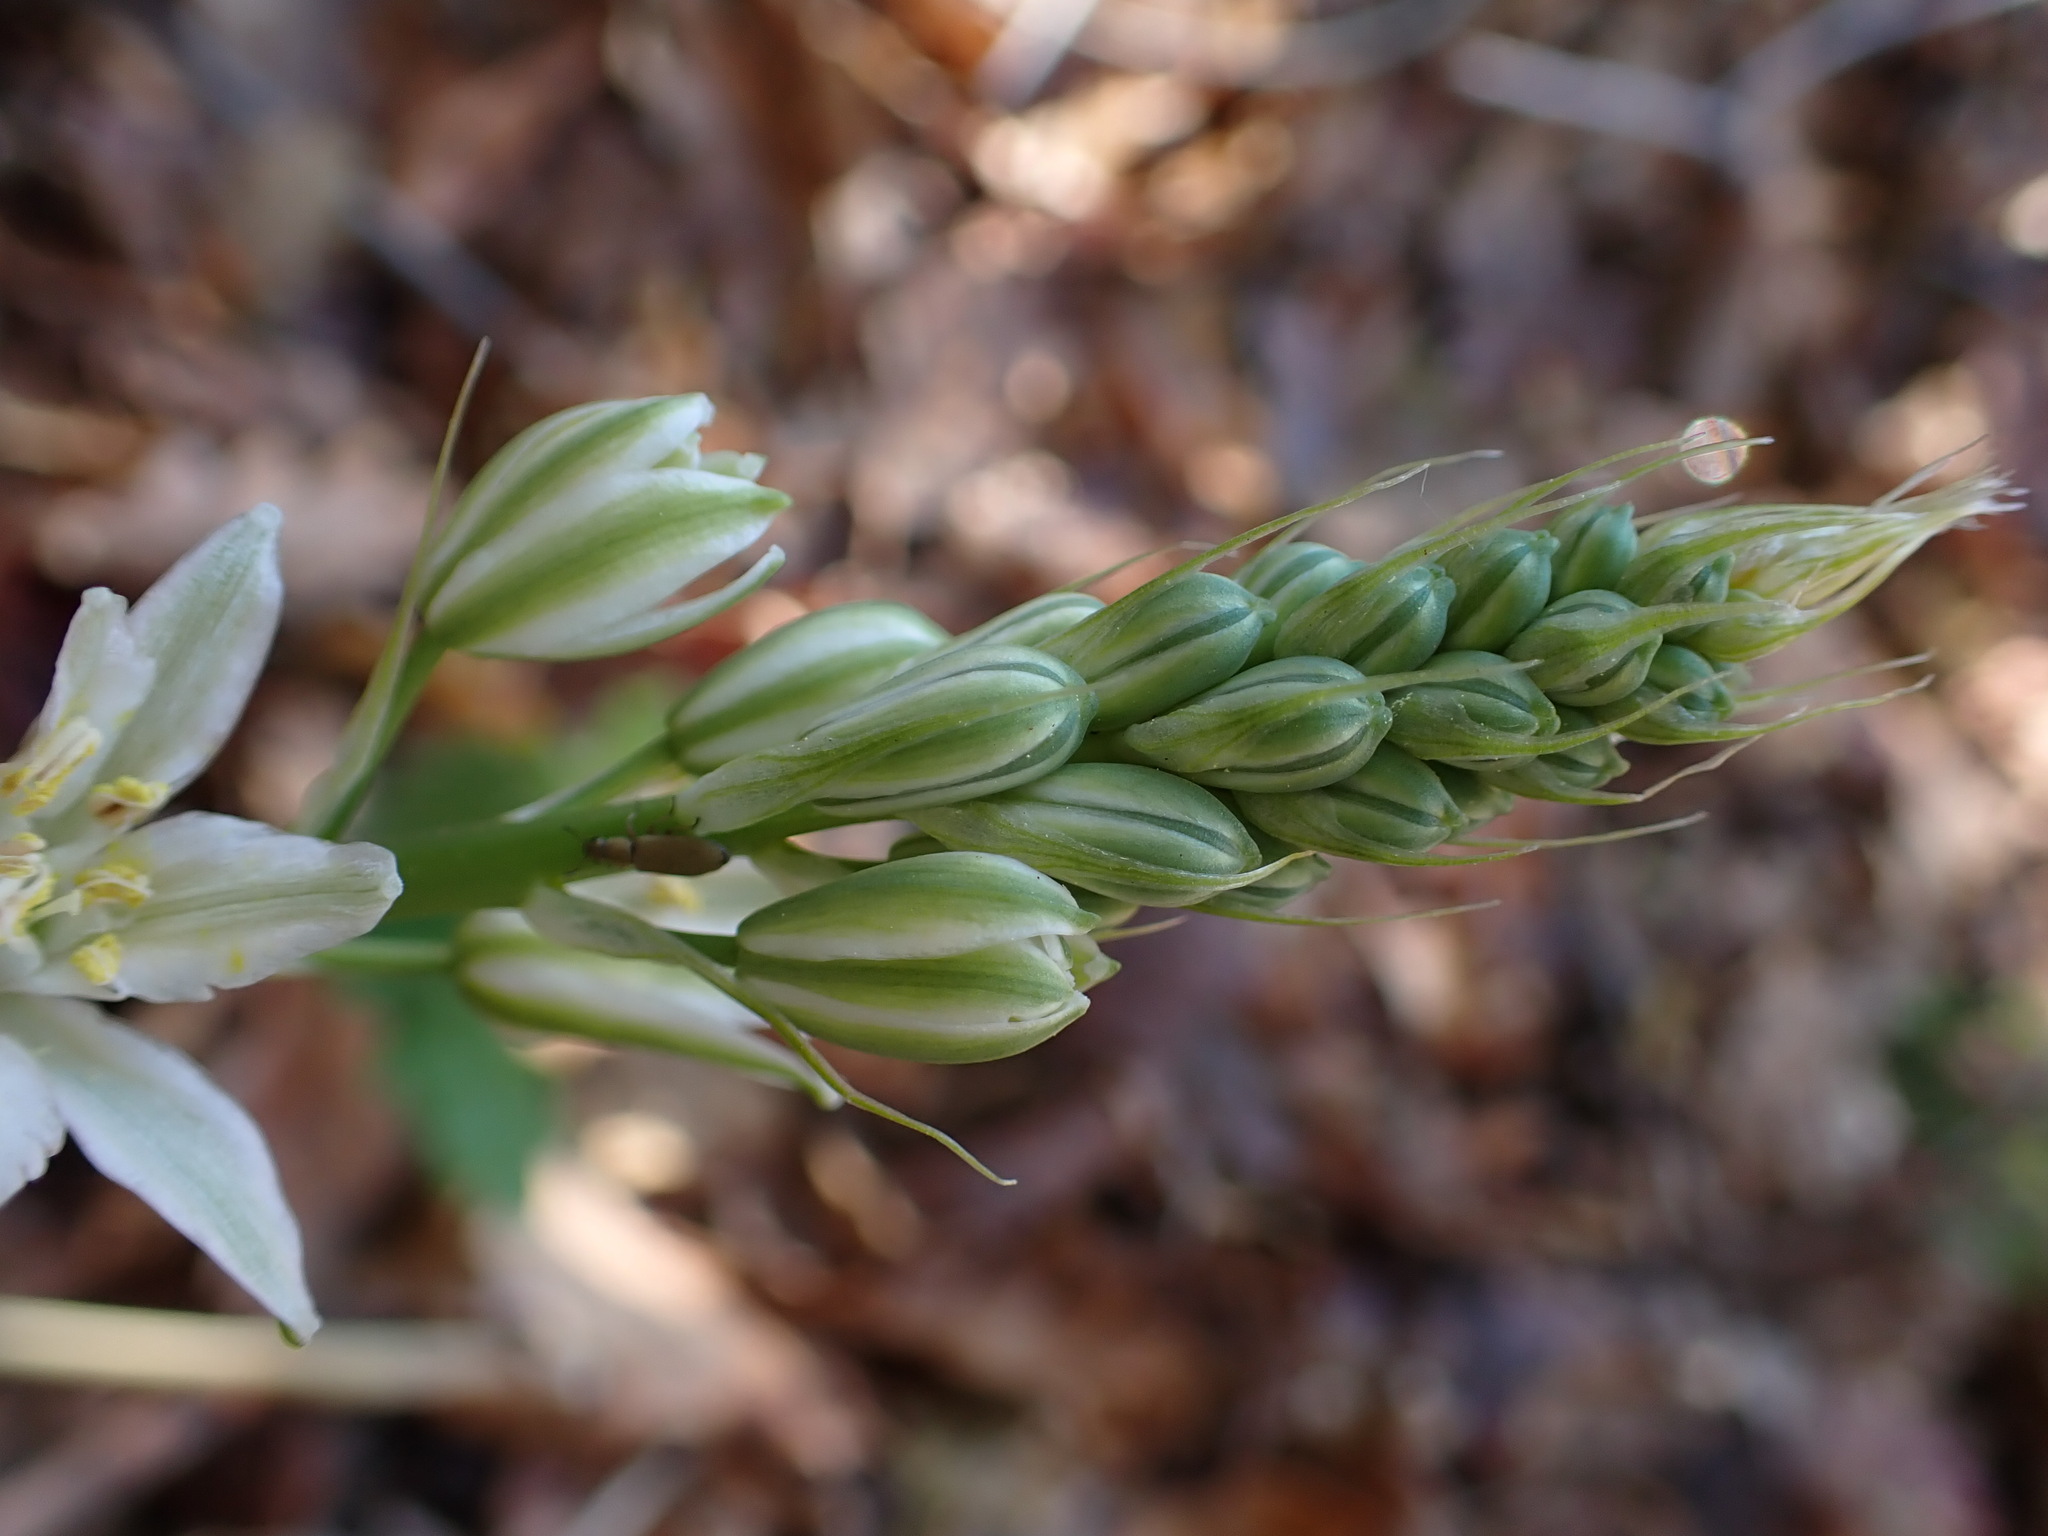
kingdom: Plantae
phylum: Tracheophyta
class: Liliopsida
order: Asparagales
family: Asparagaceae
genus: Ornithogalum
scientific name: Ornithogalum narbonense
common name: Bath-asparagus
